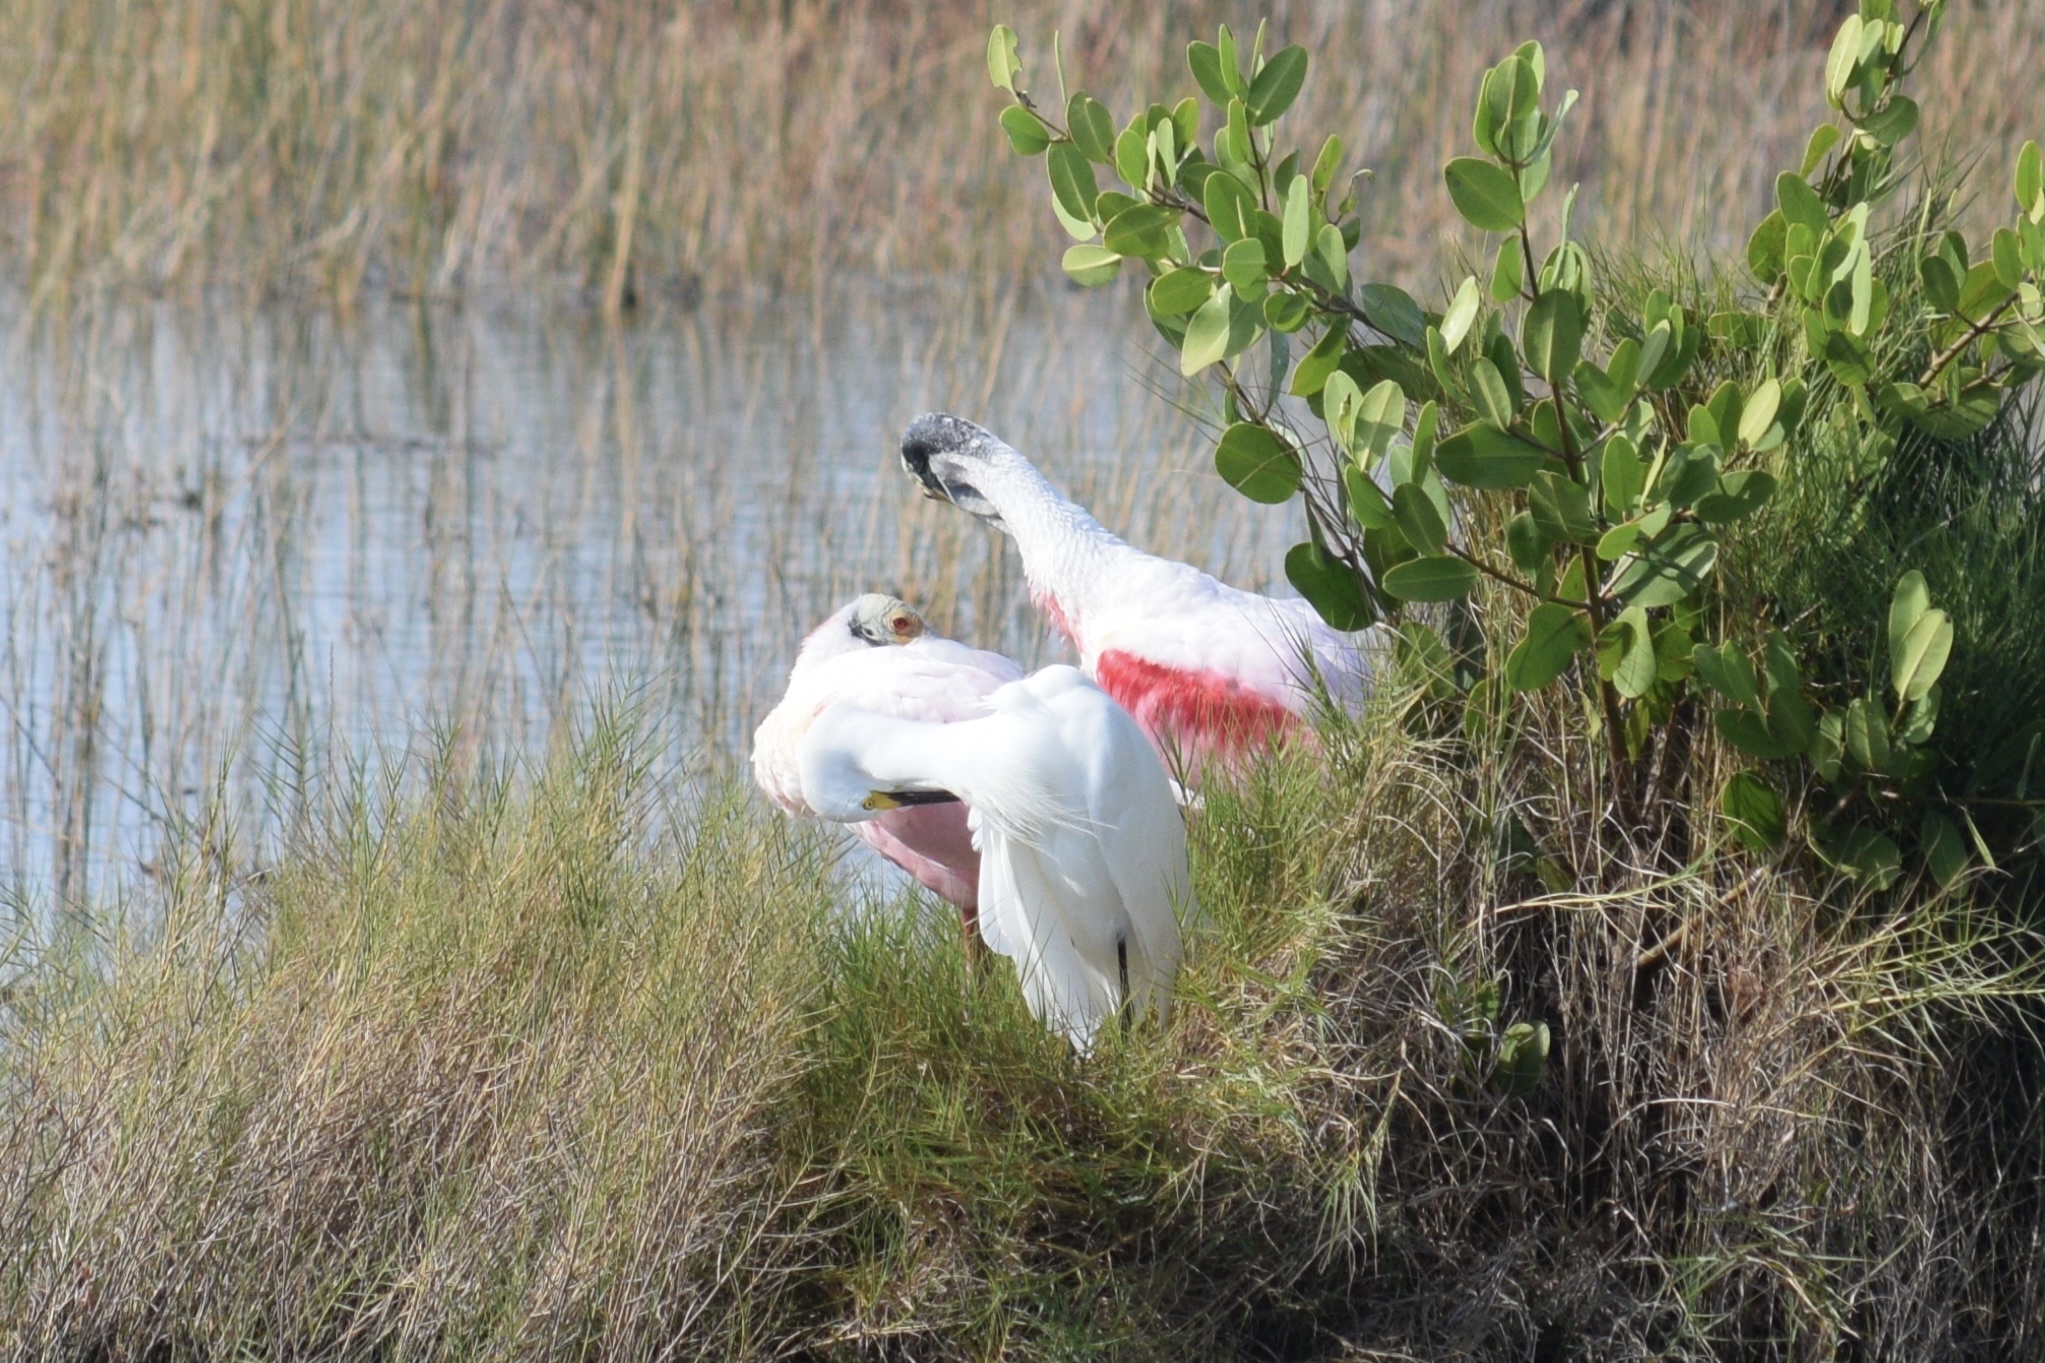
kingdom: Animalia
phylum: Chordata
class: Aves
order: Pelecaniformes
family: Ardeidae
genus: Egretta
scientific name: Egretta thula
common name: Snowy egret
